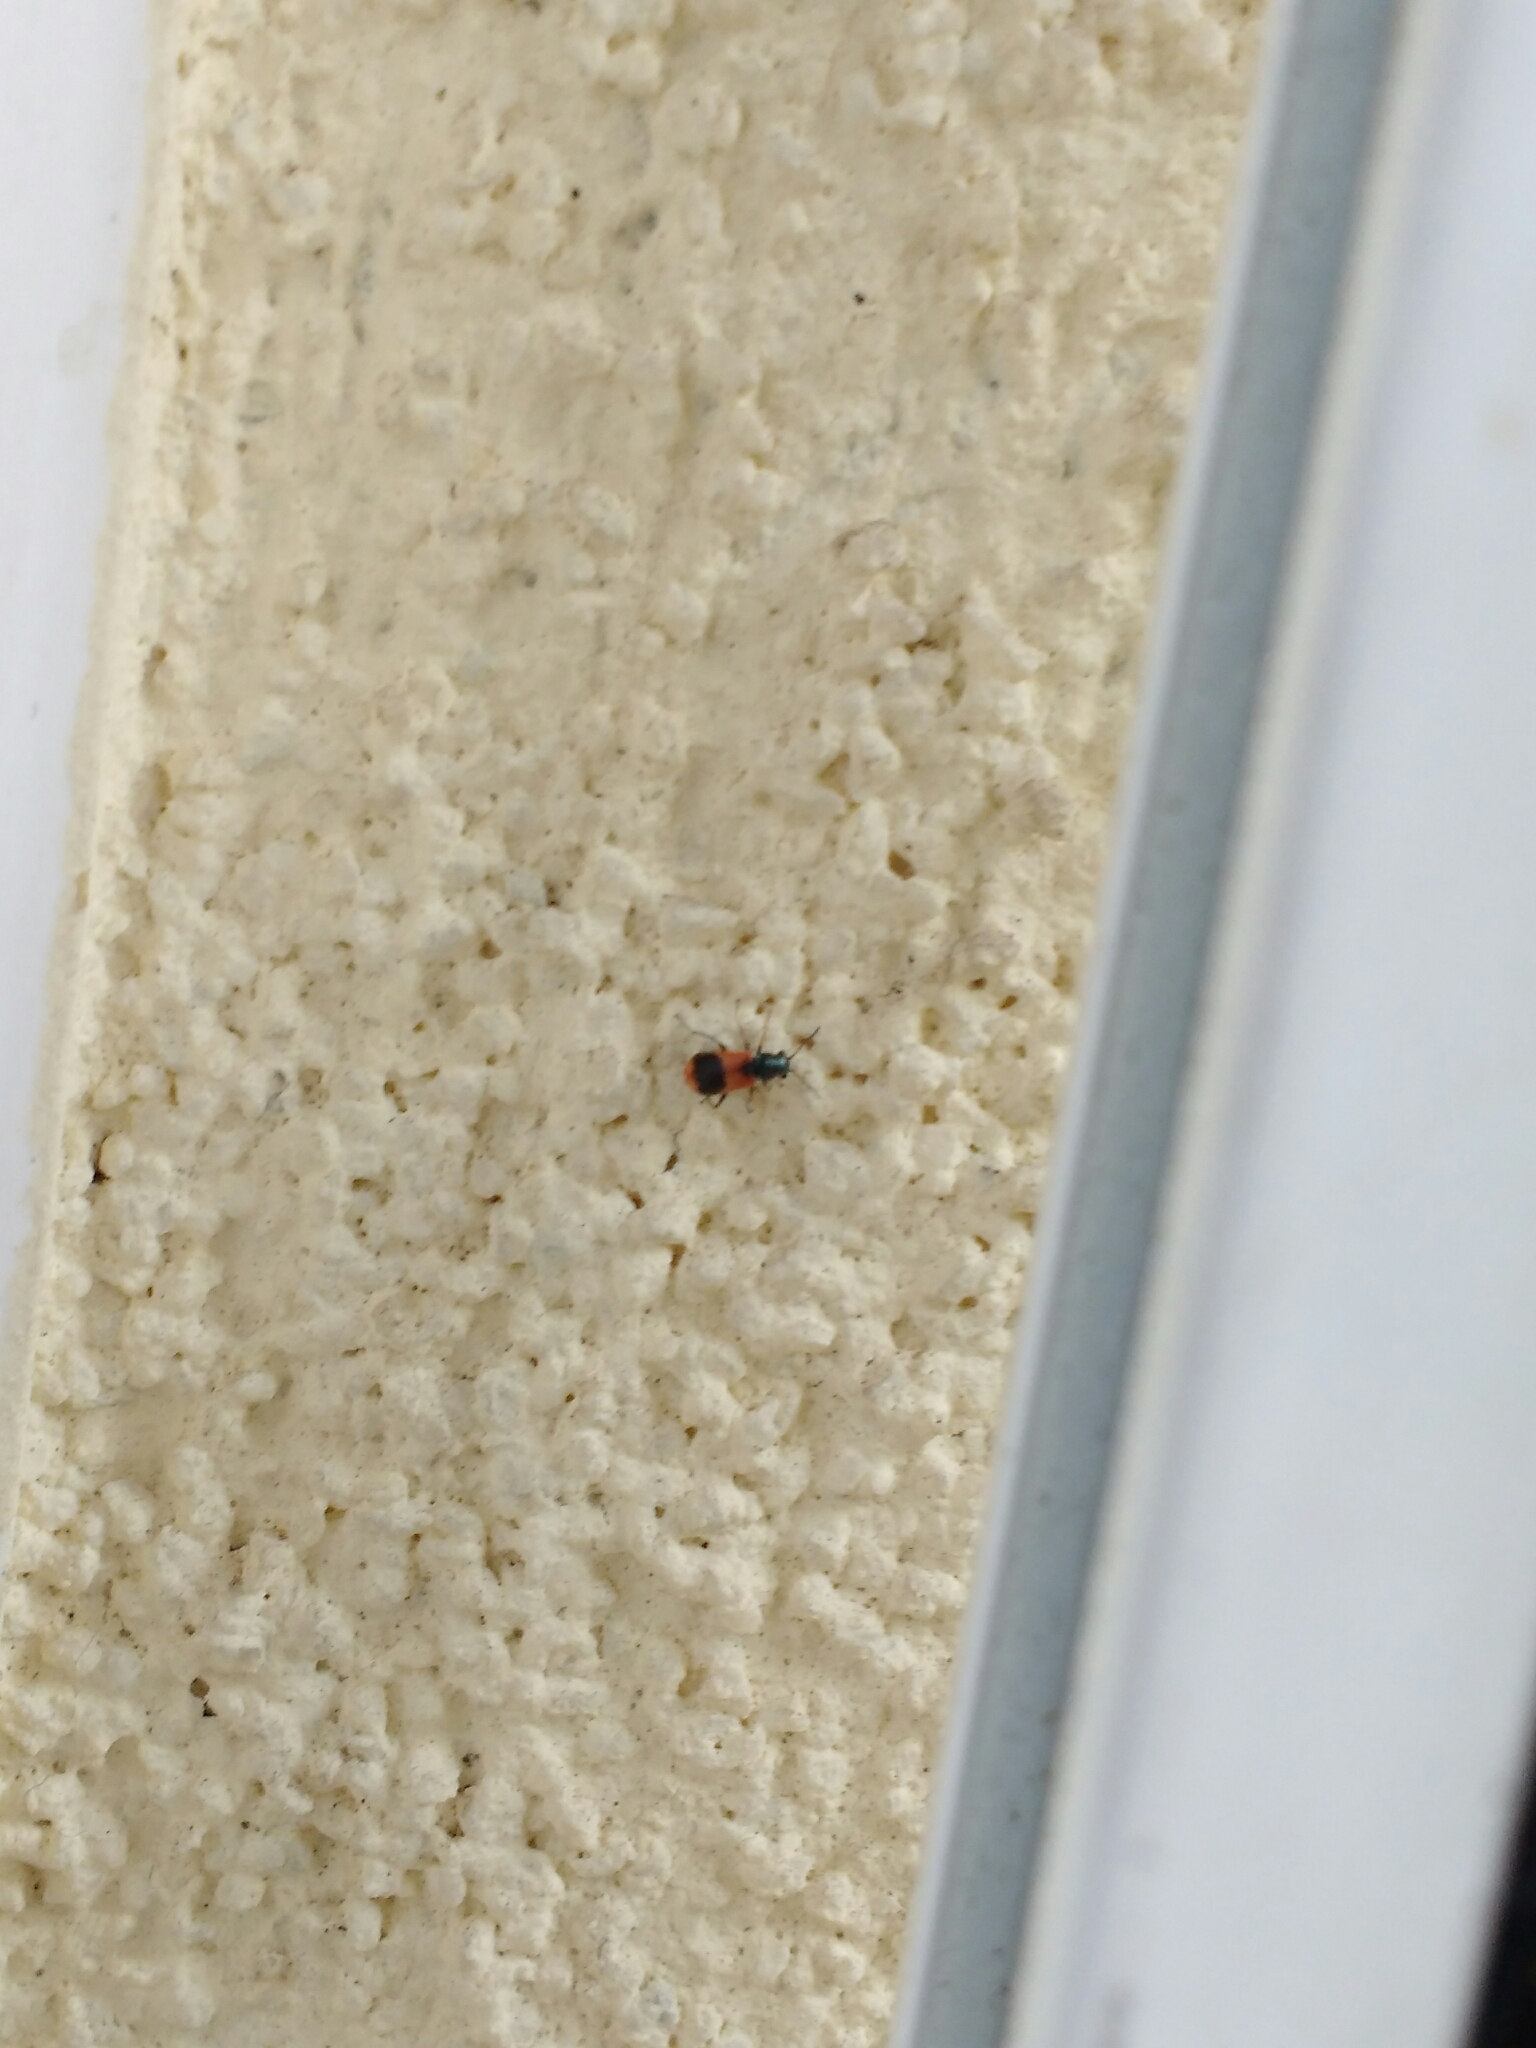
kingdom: Animalia
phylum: Arthropoda
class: Insecta
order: Coleoptera
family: Melyridae
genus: Anthocomus
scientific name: Anthocomus equestris
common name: Black-banded soft-winged flower beetle
